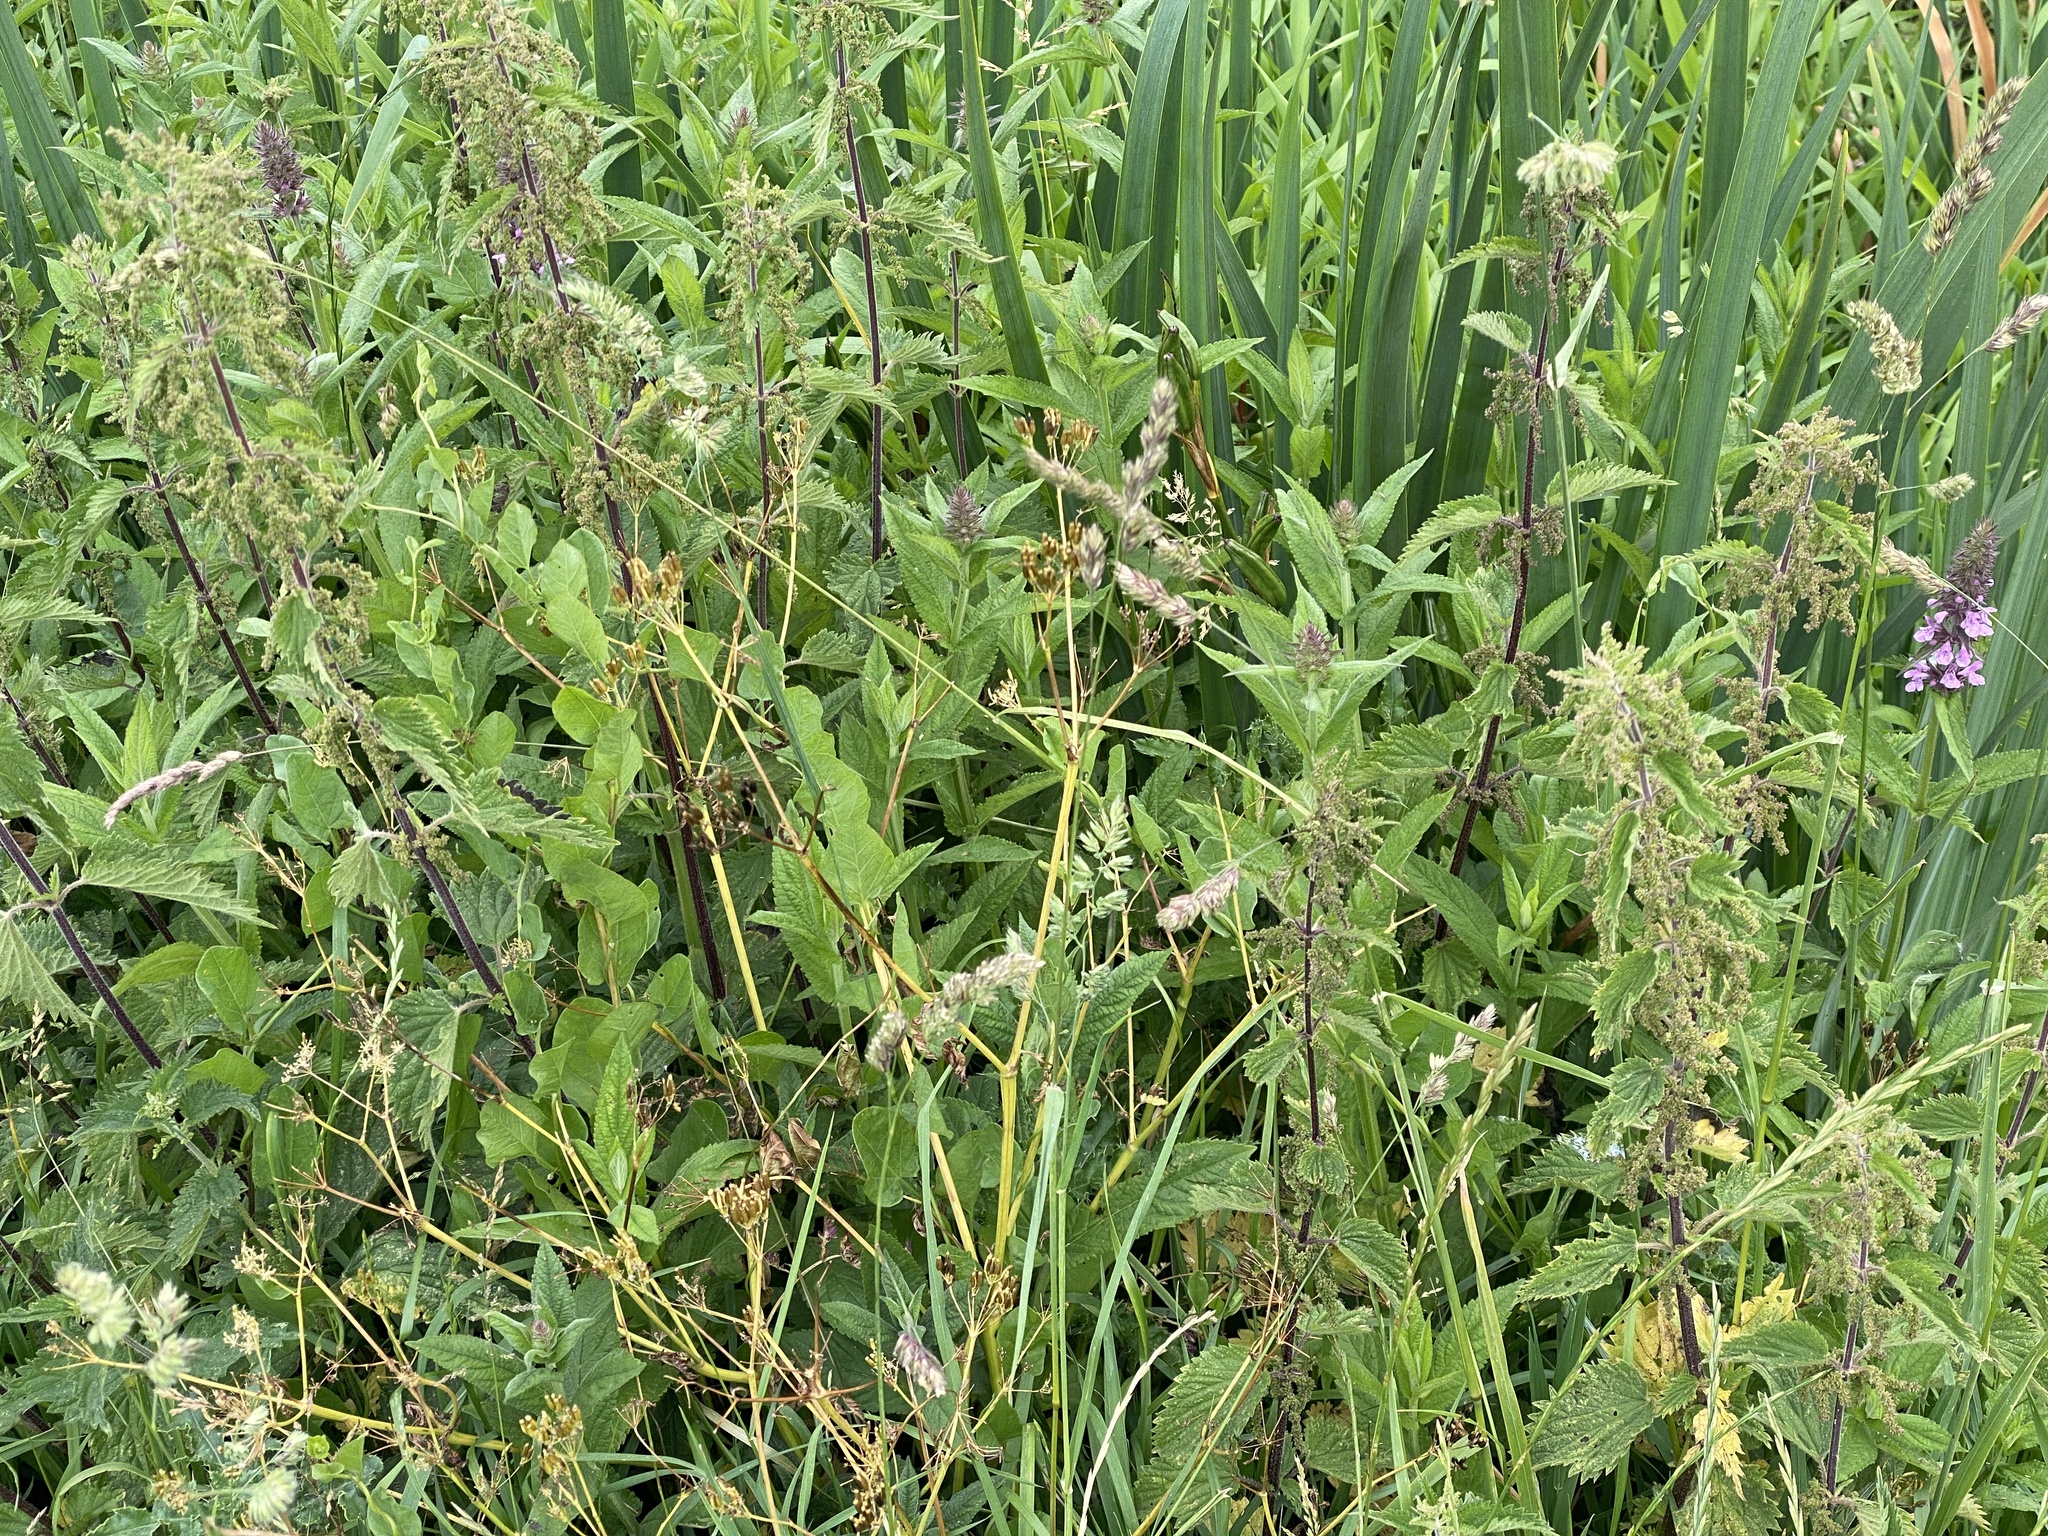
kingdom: Plantae
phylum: Tracheophyta
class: Magnoliopsida
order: Lamiales
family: Lamiaceae
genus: Stachys
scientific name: Stachys palustris
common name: Marsh woundwort
